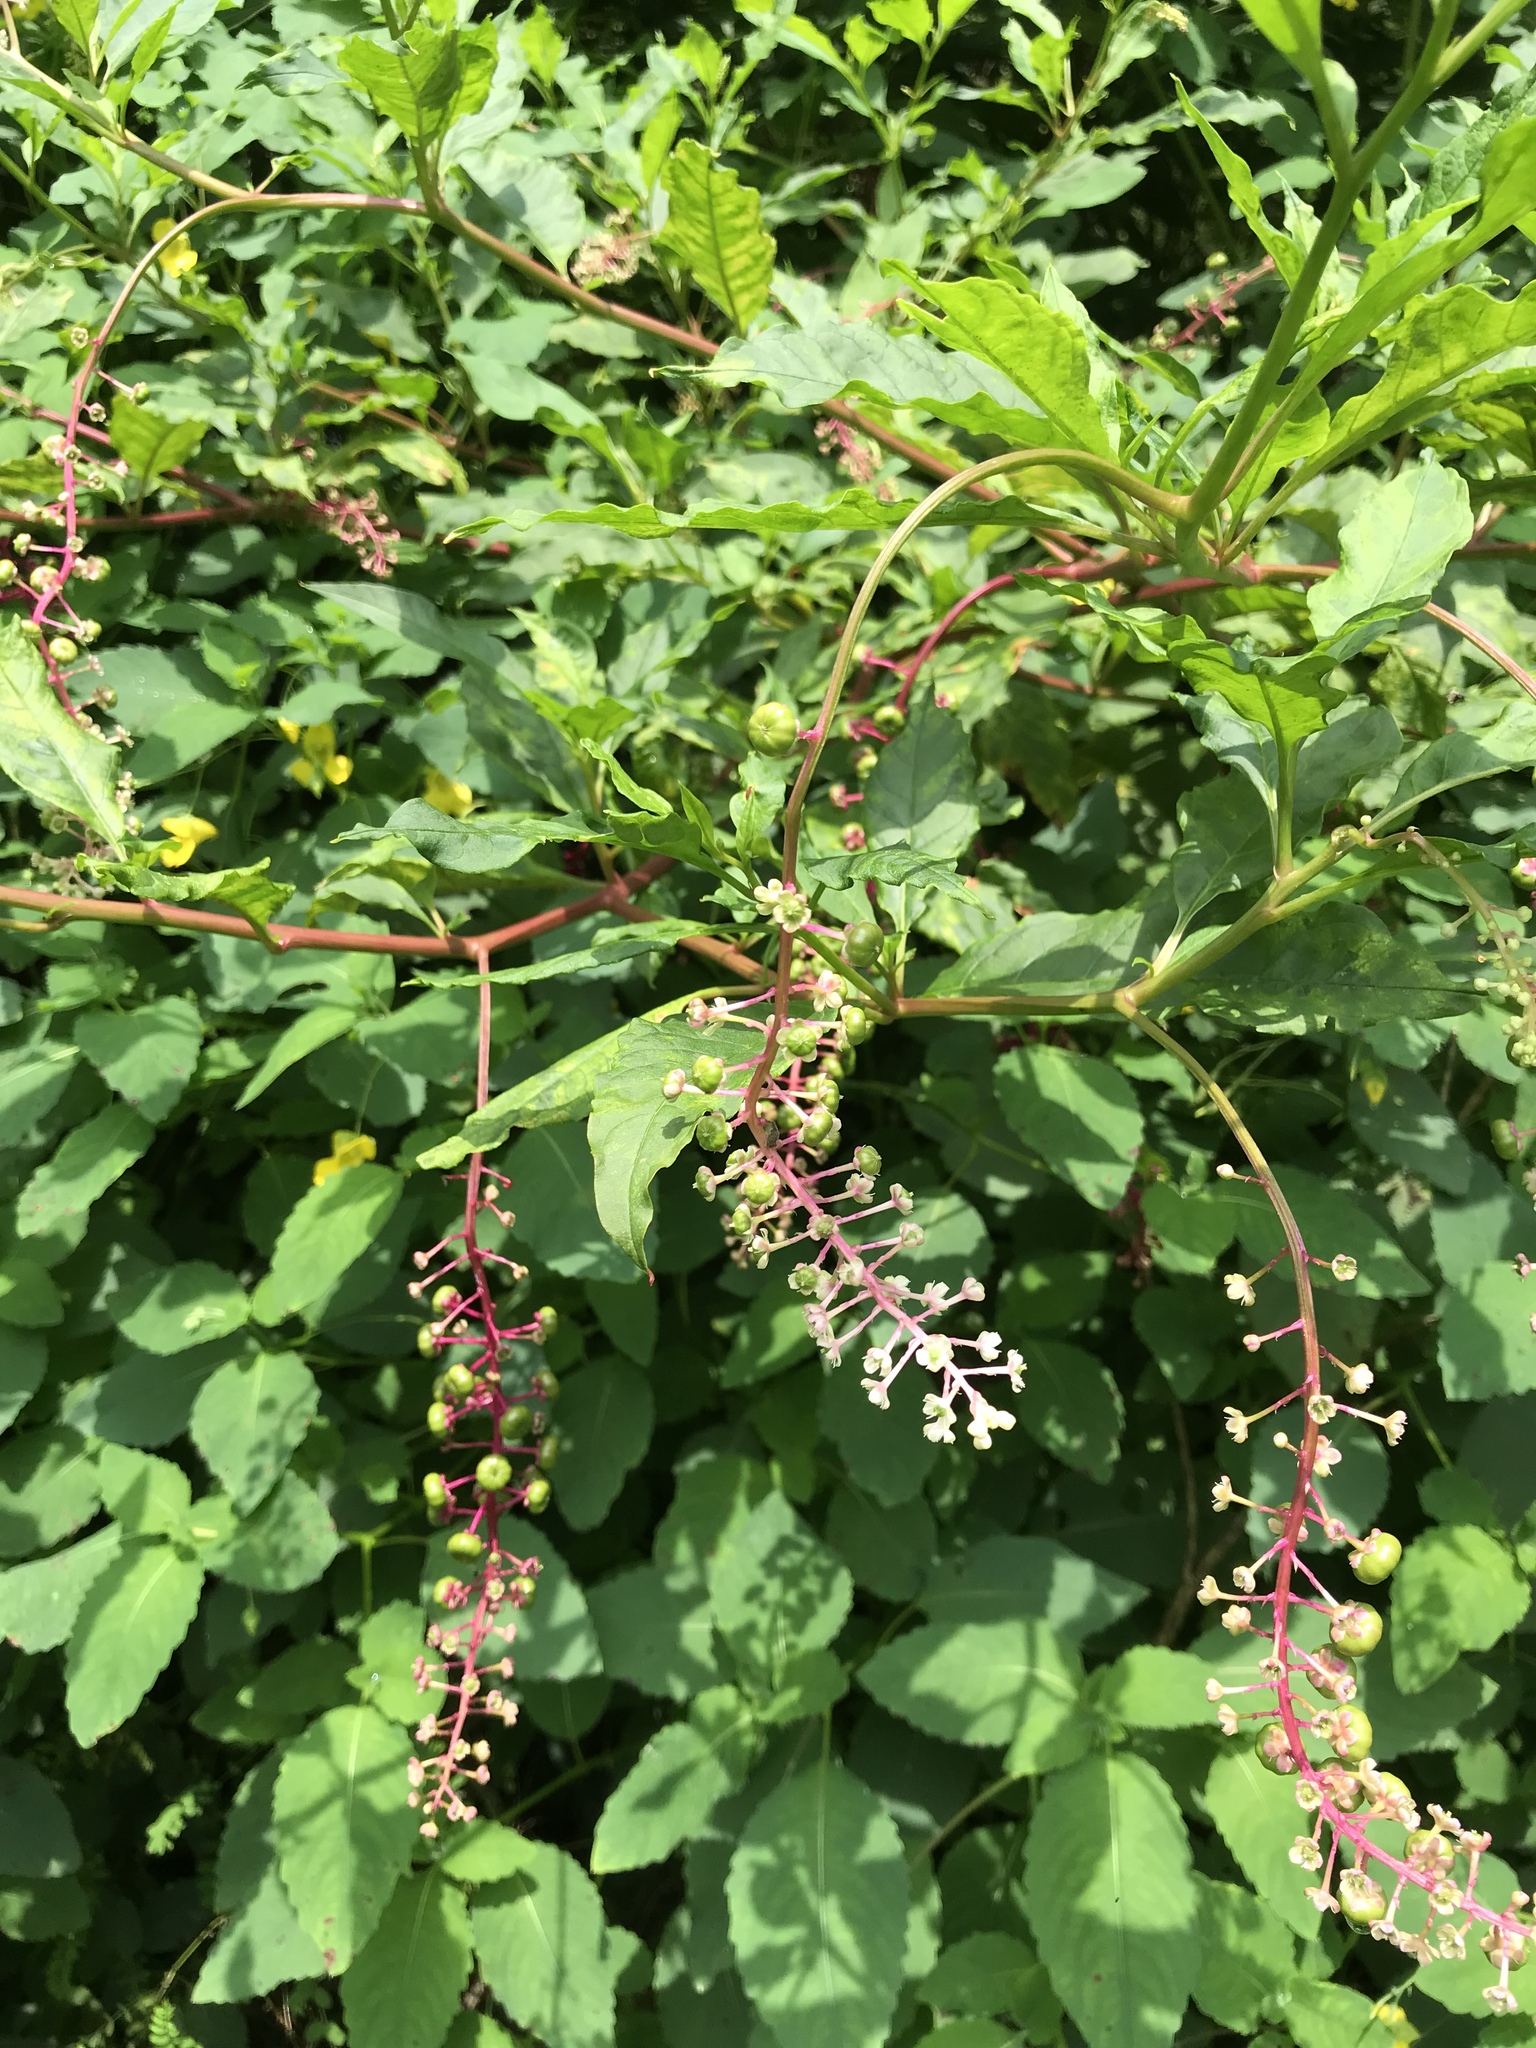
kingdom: Plantae
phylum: Tracheophyta
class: Magnoliopsida
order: Caryophyllales
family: Phytolaccaceae
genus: Phytolacca
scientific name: Phytolacca americana
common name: American pokeweed
